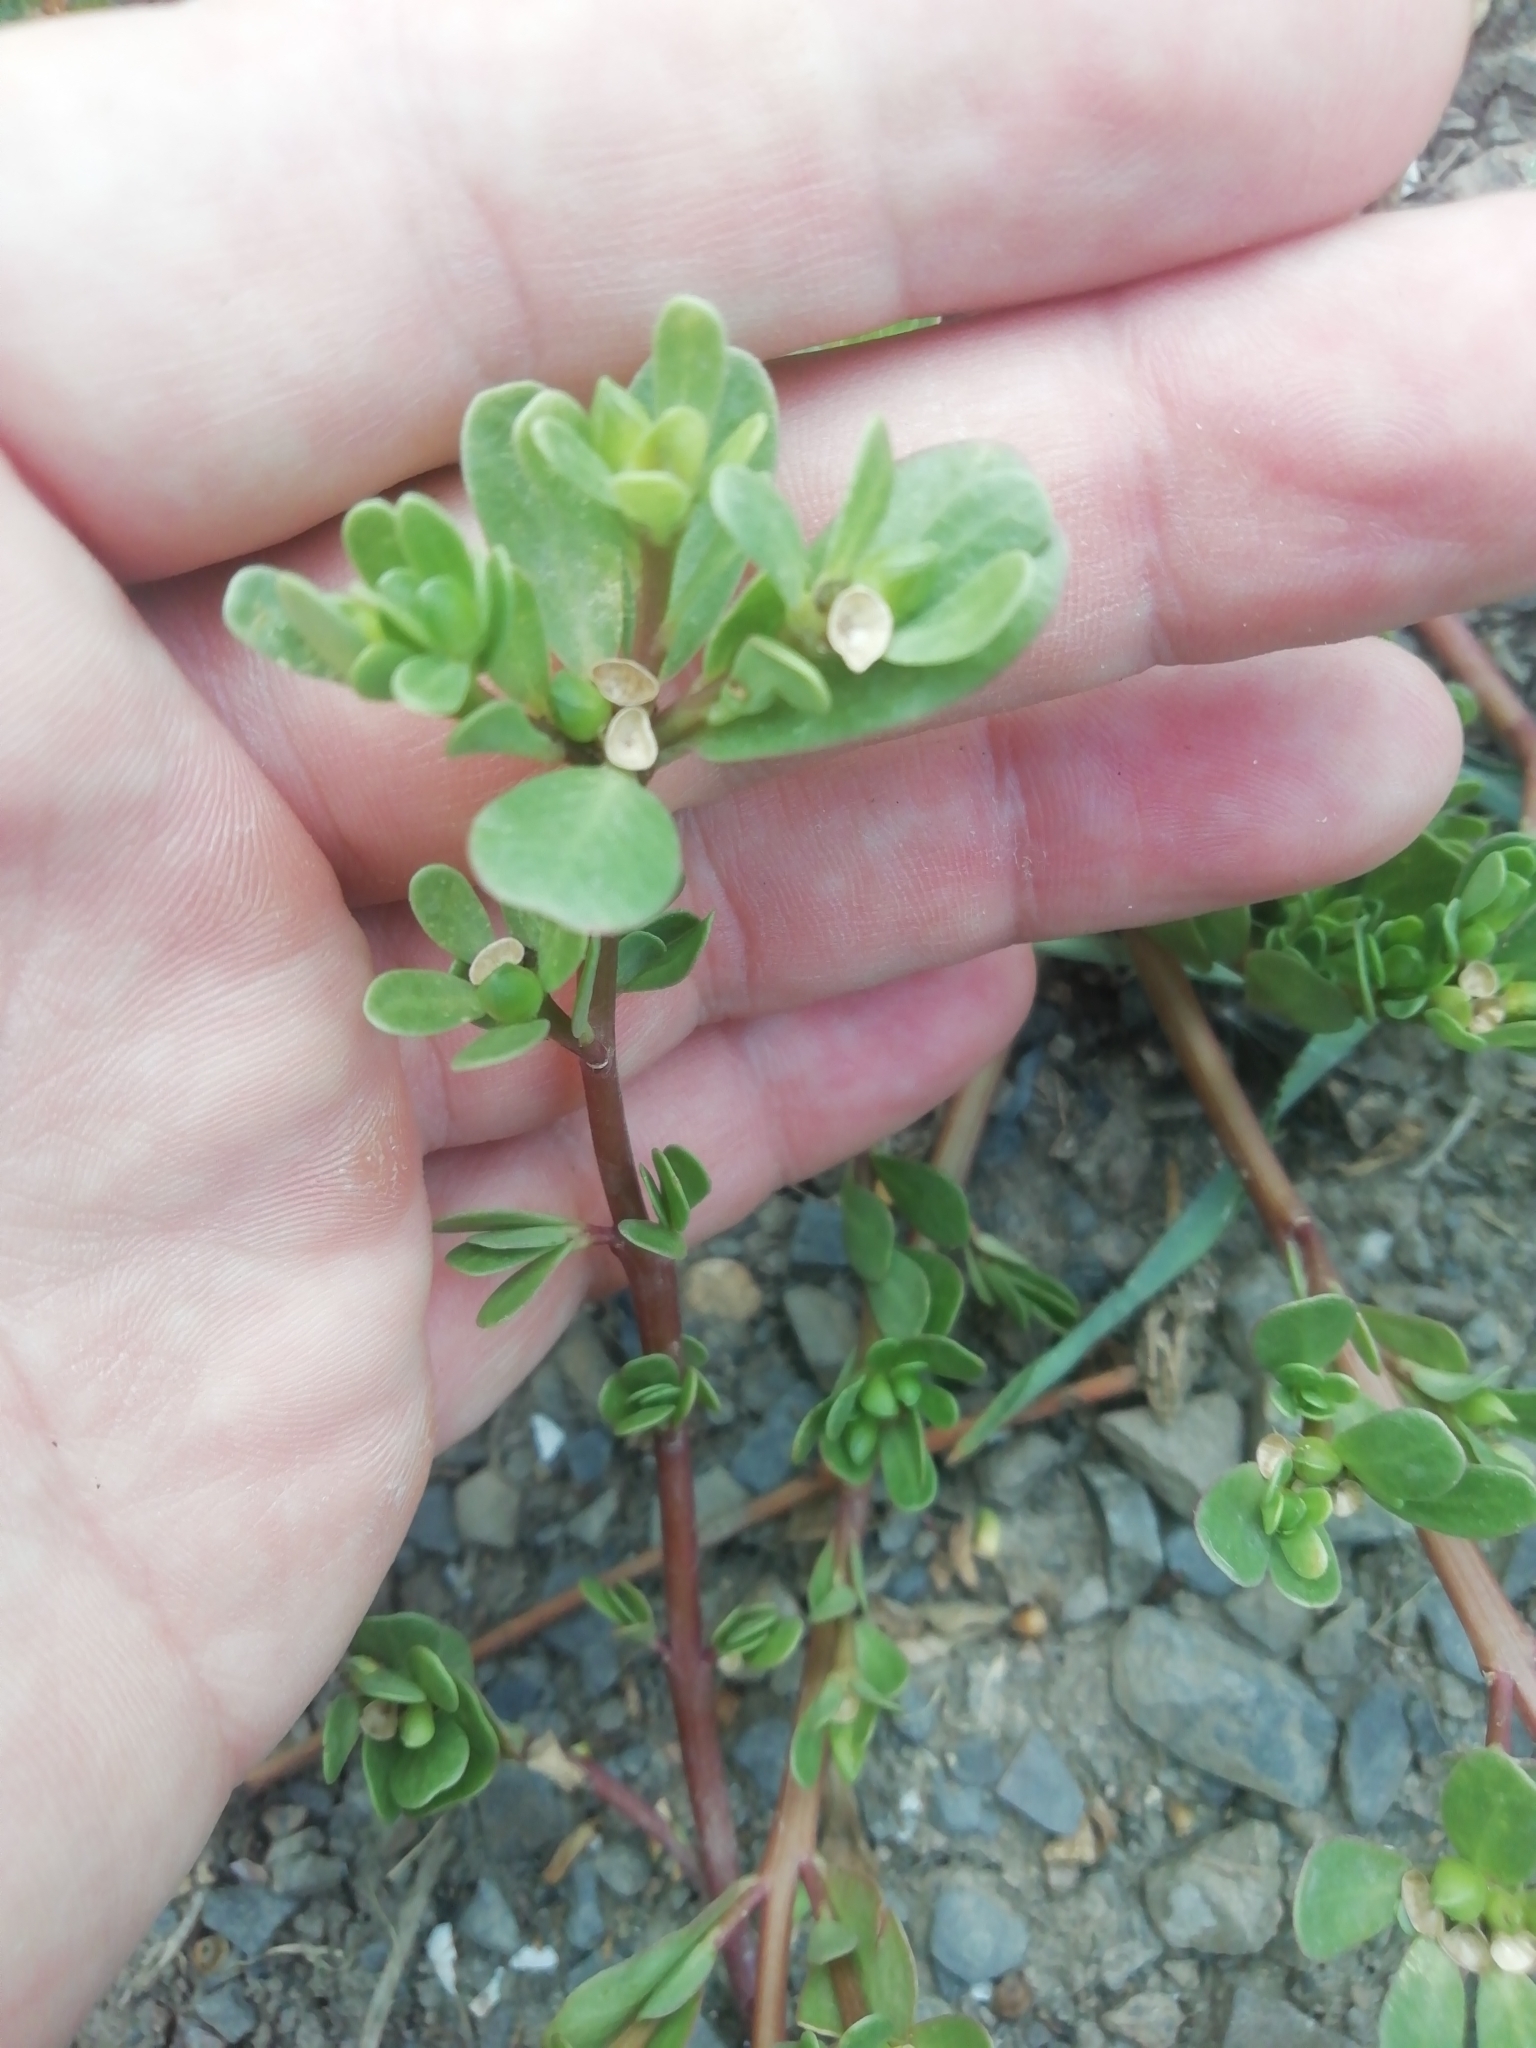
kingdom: Plantae
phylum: Tracheophyta
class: Magnoliopsida
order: Caryophyllales
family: Portulacaceae
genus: Portulaca
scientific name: Portulaca oleracea
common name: Common purslane
